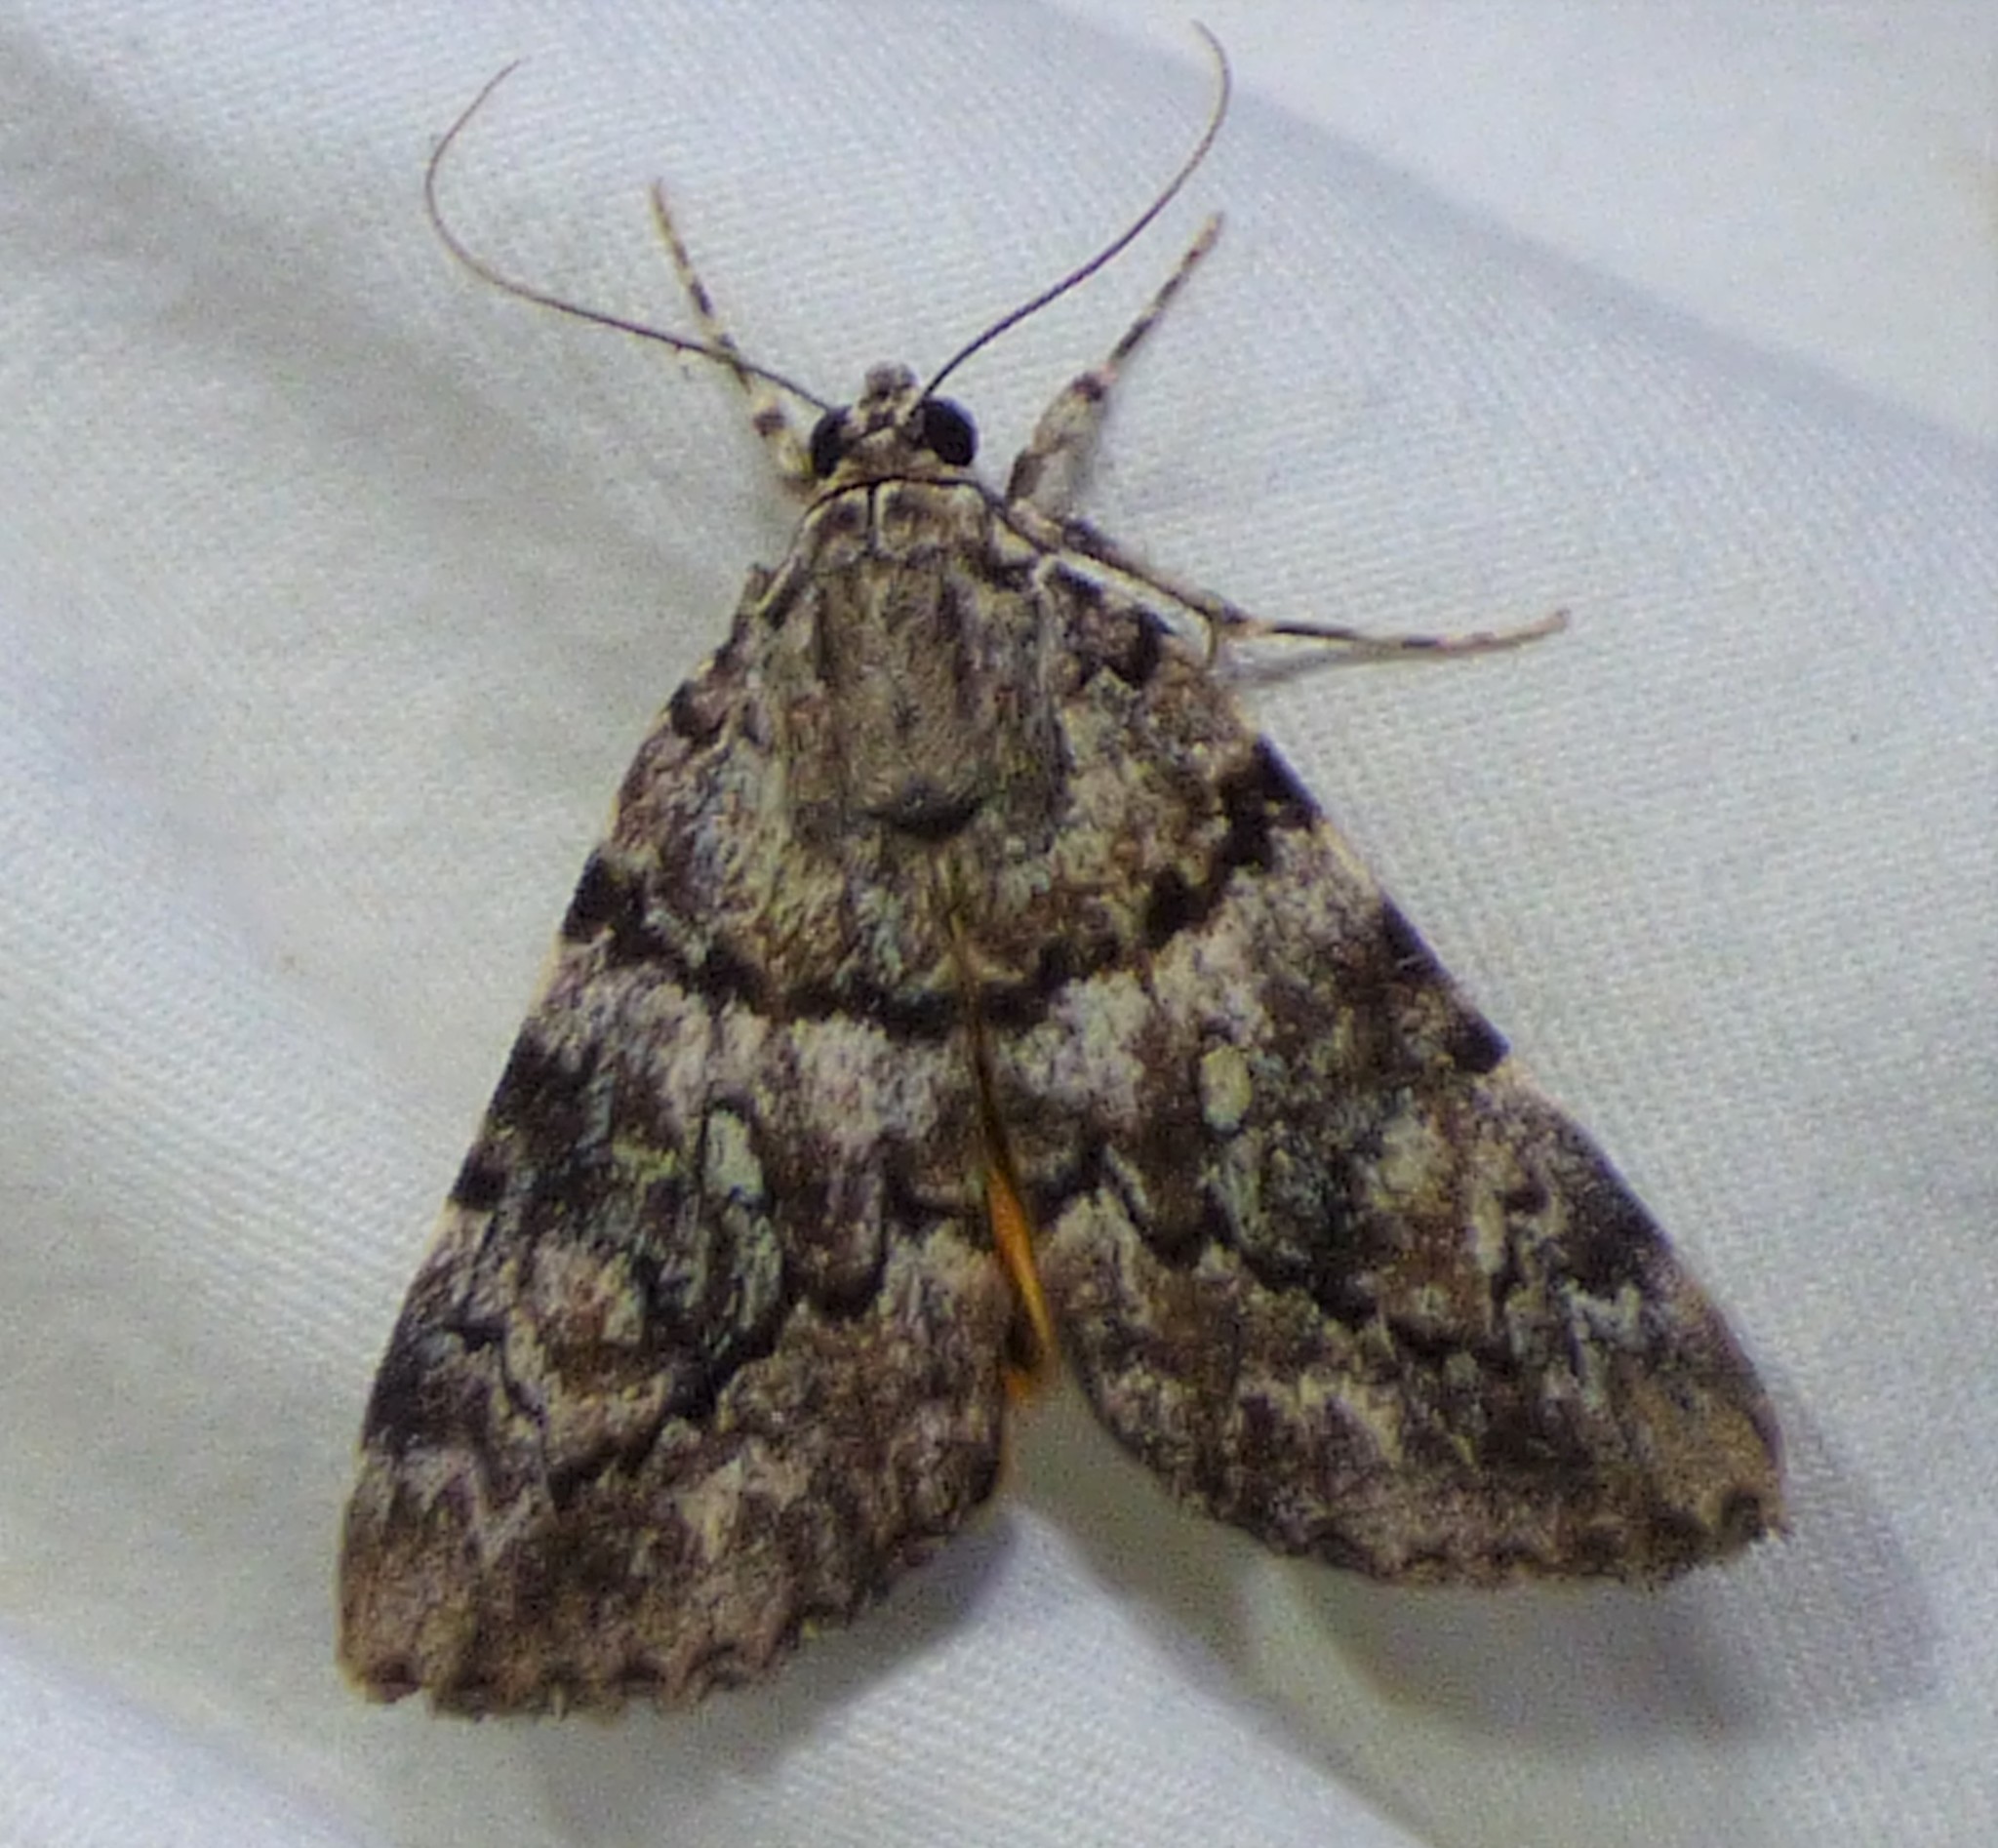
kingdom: Animalia
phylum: Arthropoda
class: Insecta
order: Lepidoptera
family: Erebidae
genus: Catocala
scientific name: Catocala lineella
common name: Little lined underwing
